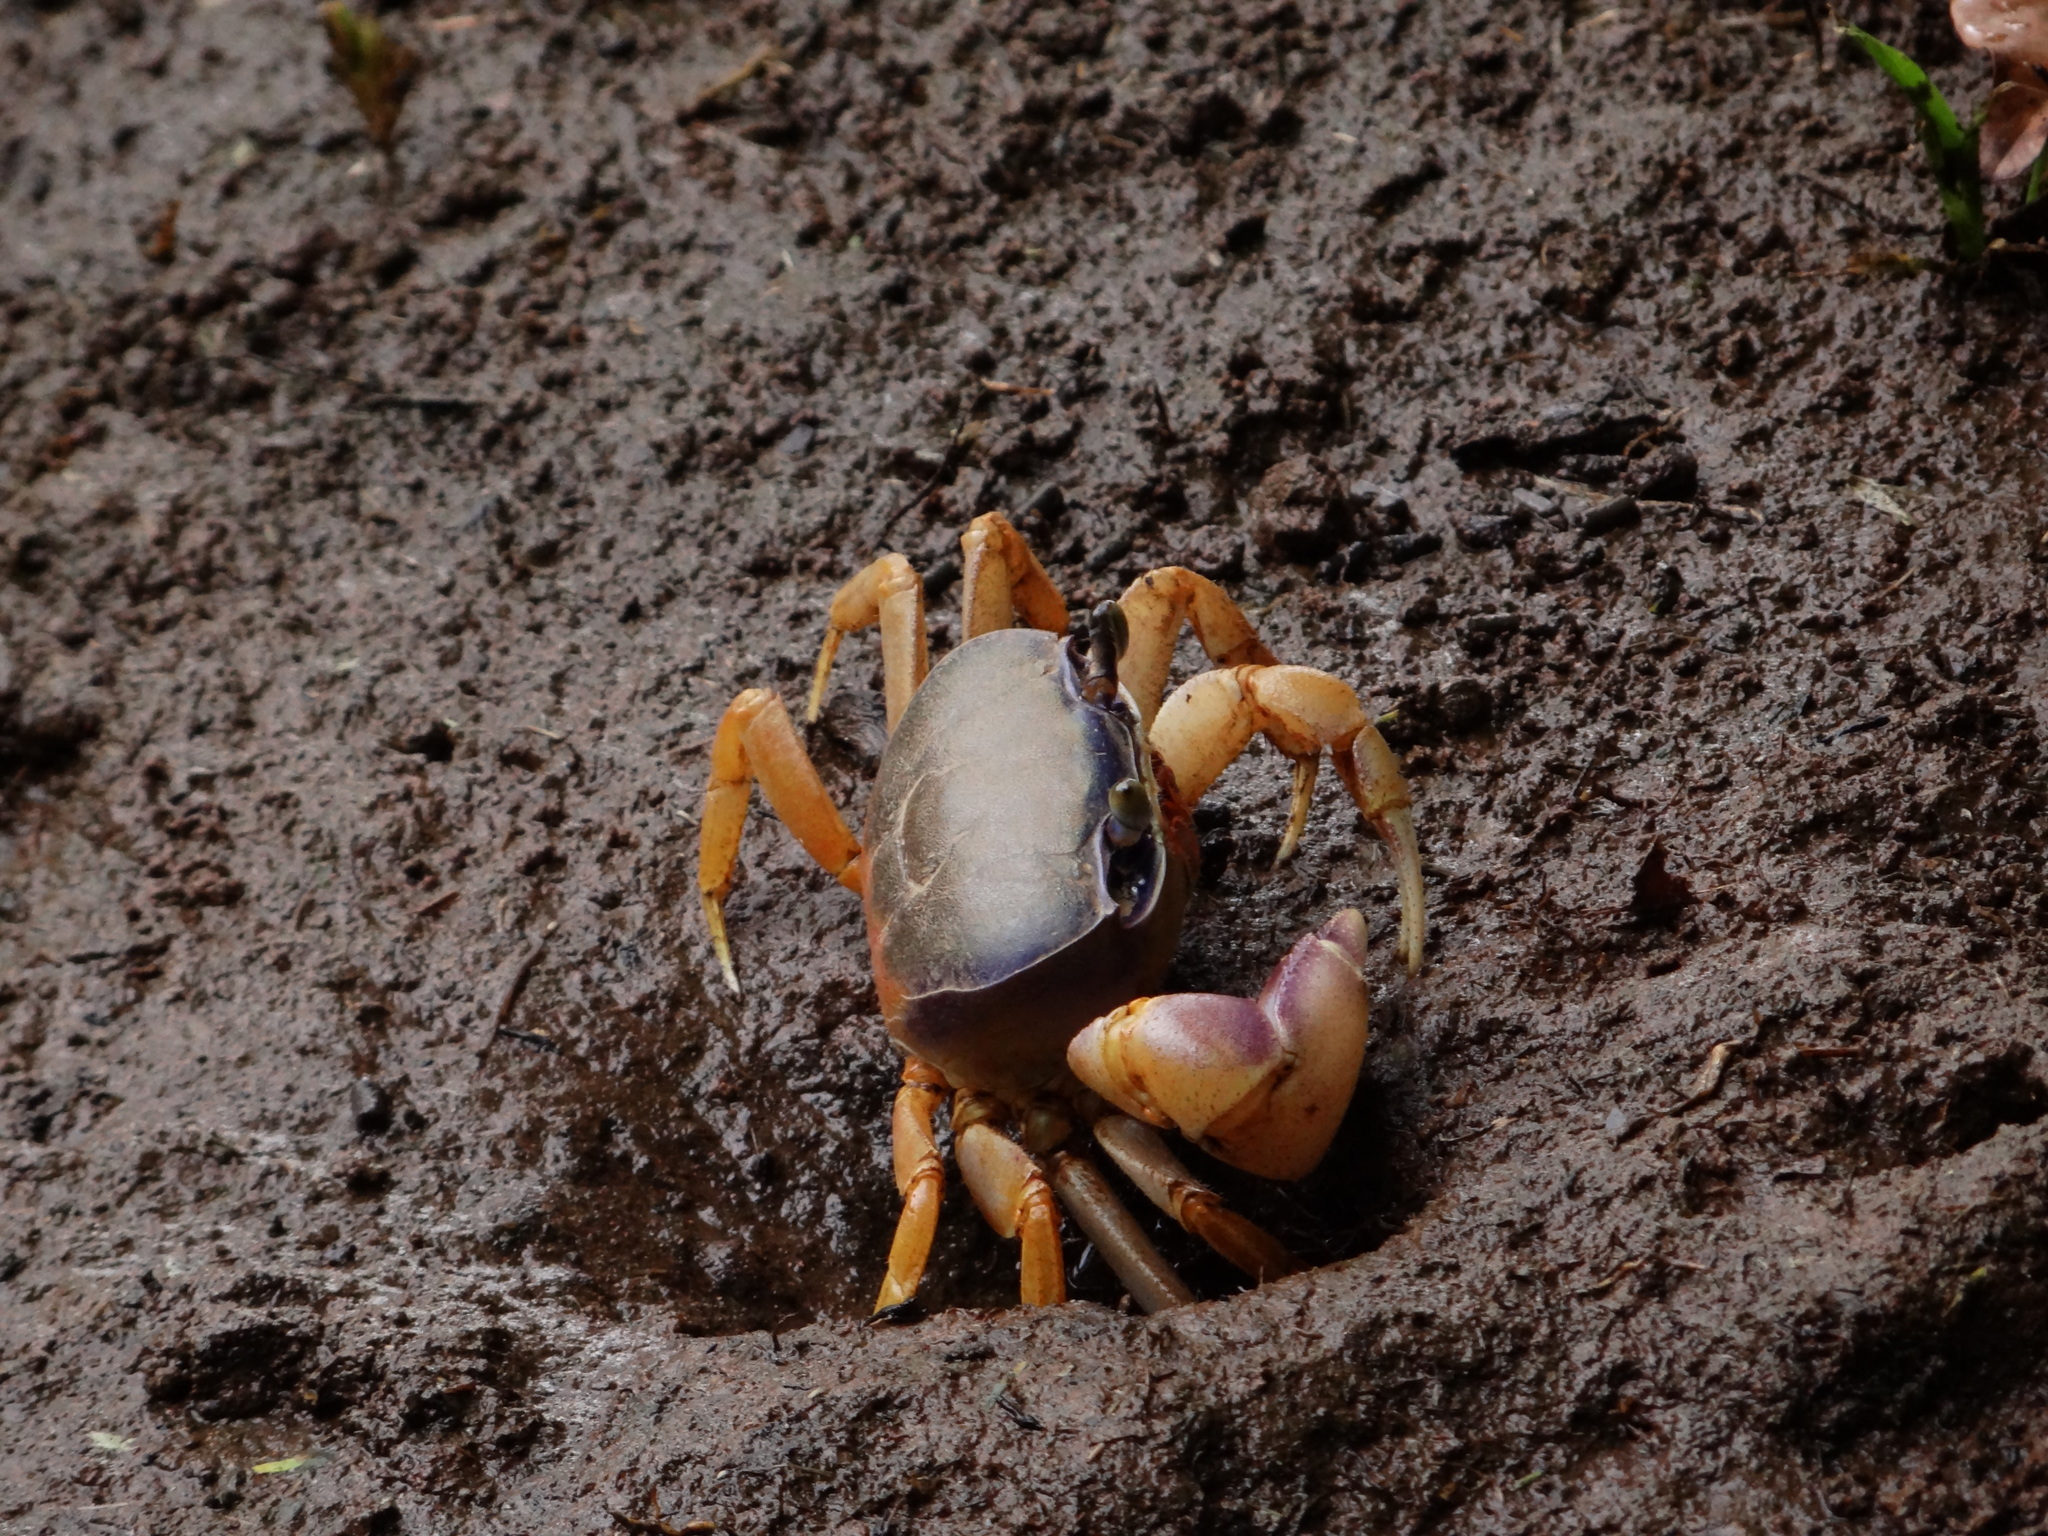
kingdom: Animalia
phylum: Arthropoda
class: Malacostraca
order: Decapoda
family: Gecarcinidae
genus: Cardisoma
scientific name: Cardisoma guanhumi
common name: Great land crab
